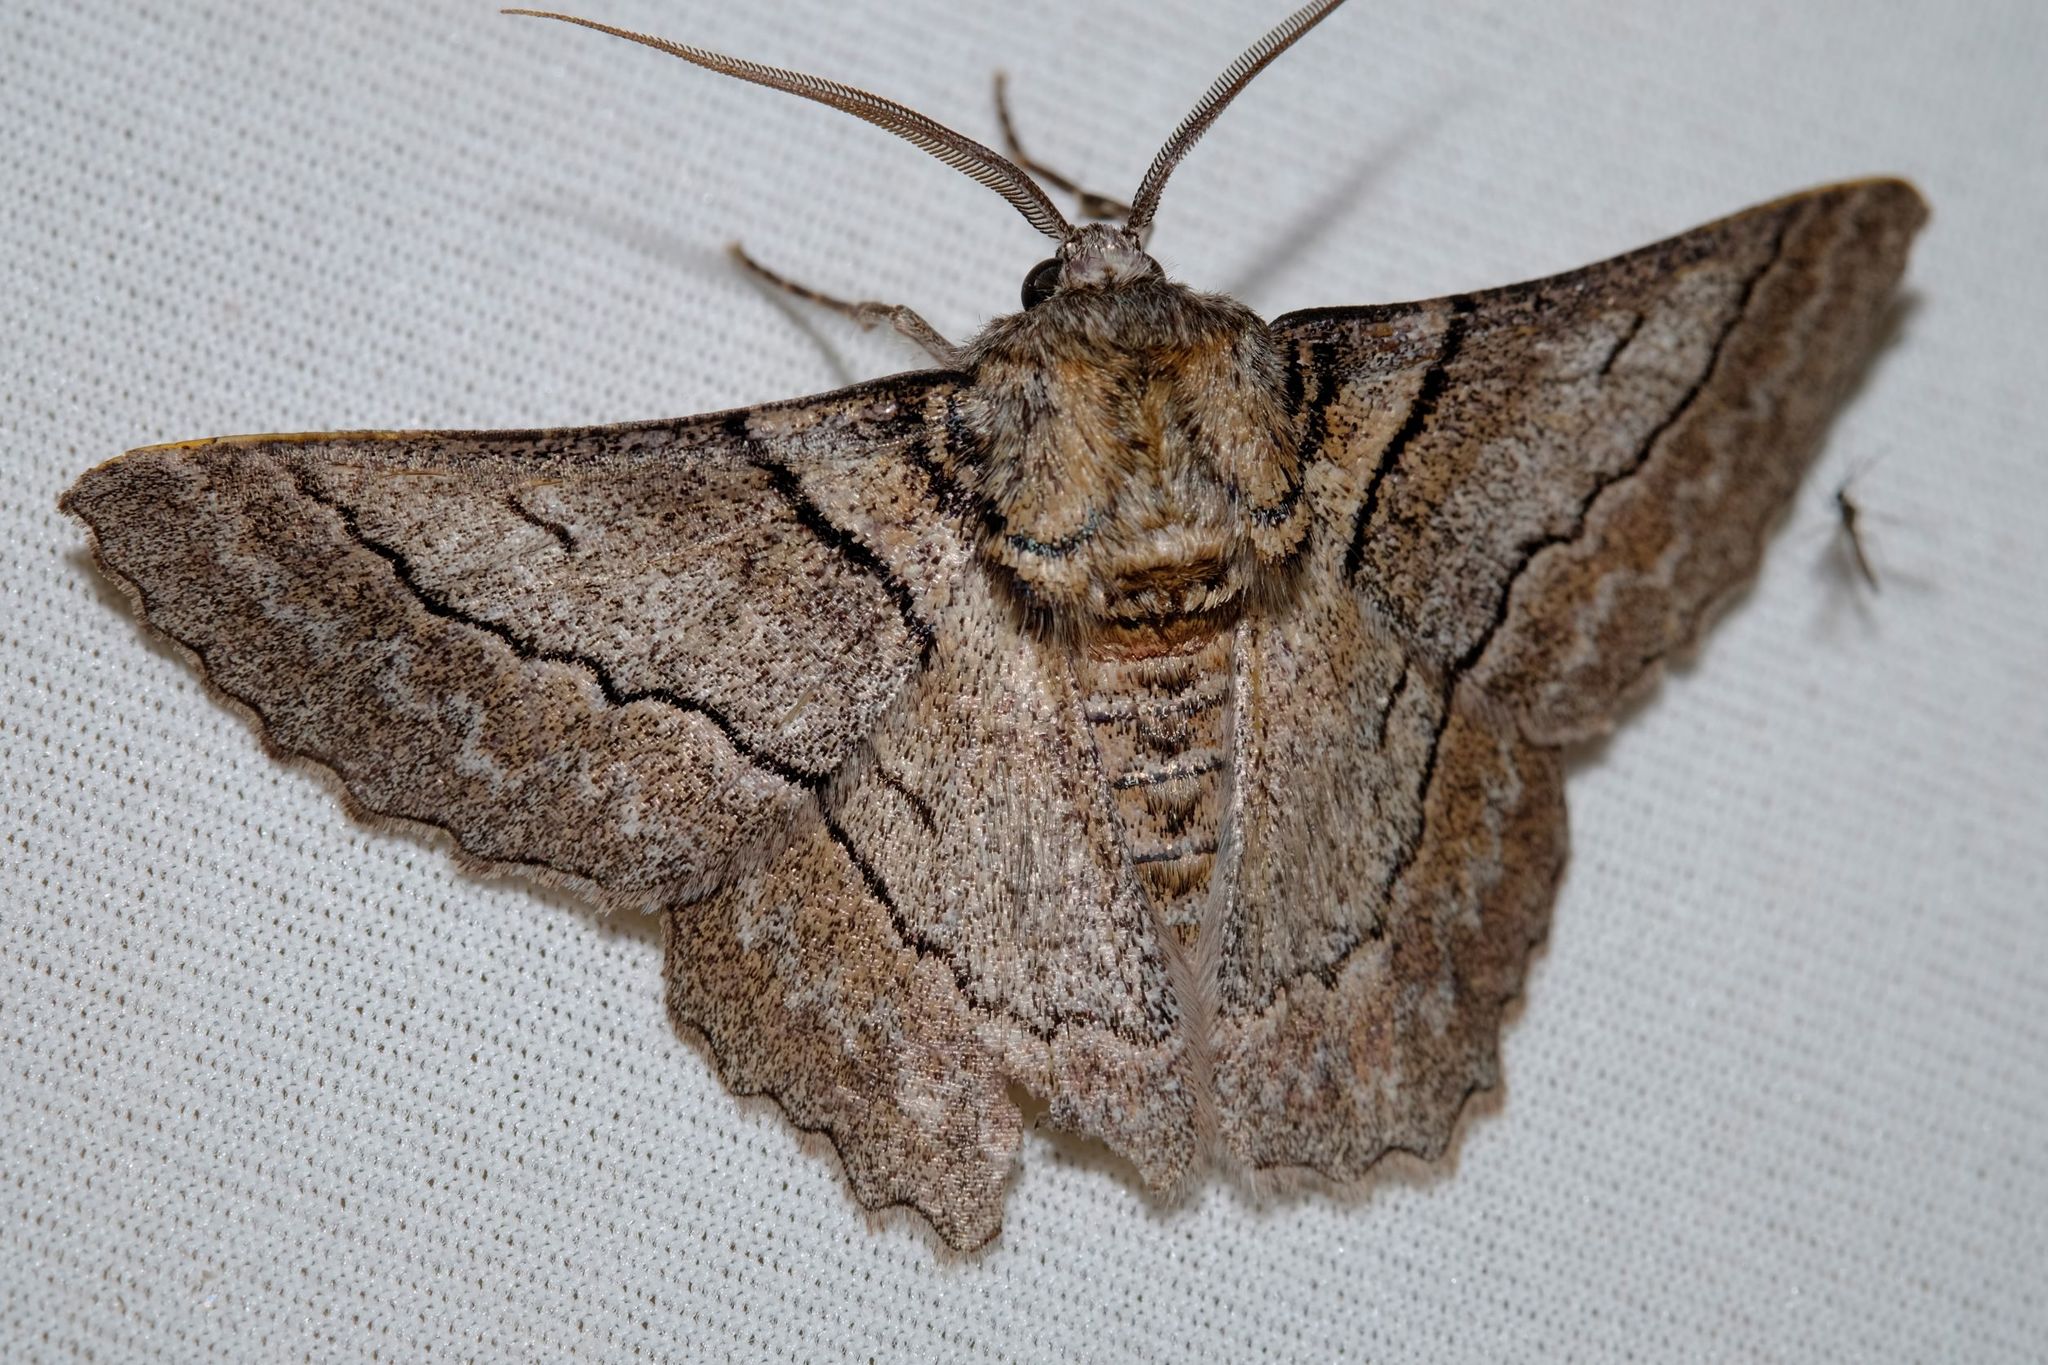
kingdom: Animalia
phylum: Arthropoda
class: Insecta
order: Lepidoptera
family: Geometridae
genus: Hypobapta
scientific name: Hypobapta tachyhalotaria
